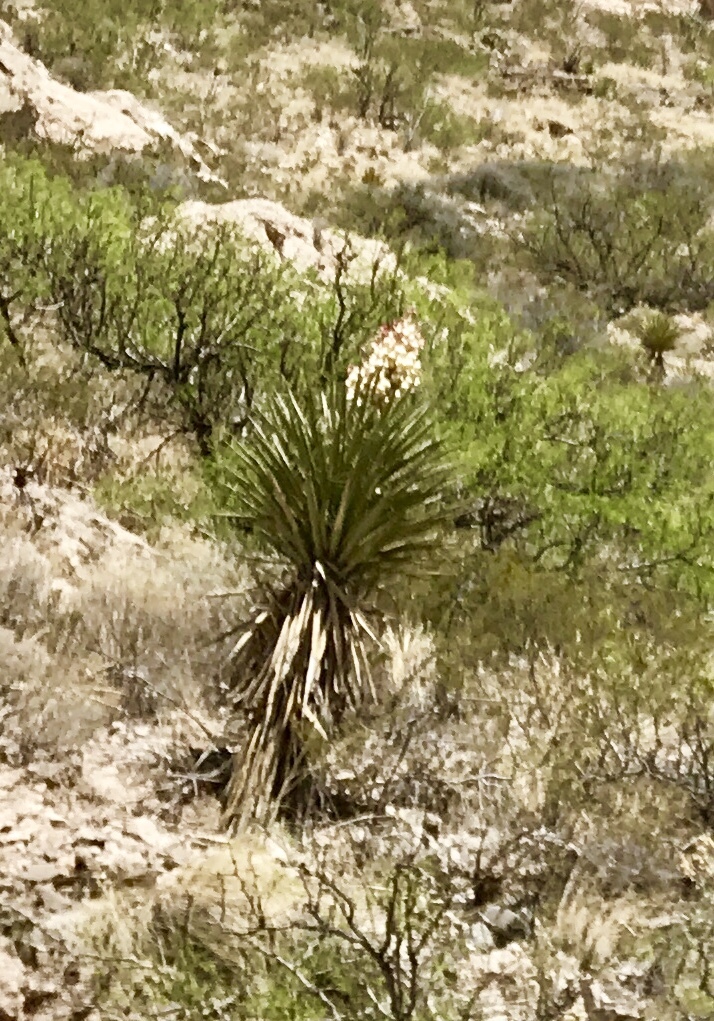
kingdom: Plantae
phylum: Tracheophyta
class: Liliopsida
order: Asparagales
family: Asparagaceae
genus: Yucca
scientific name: Yucca treculiana
